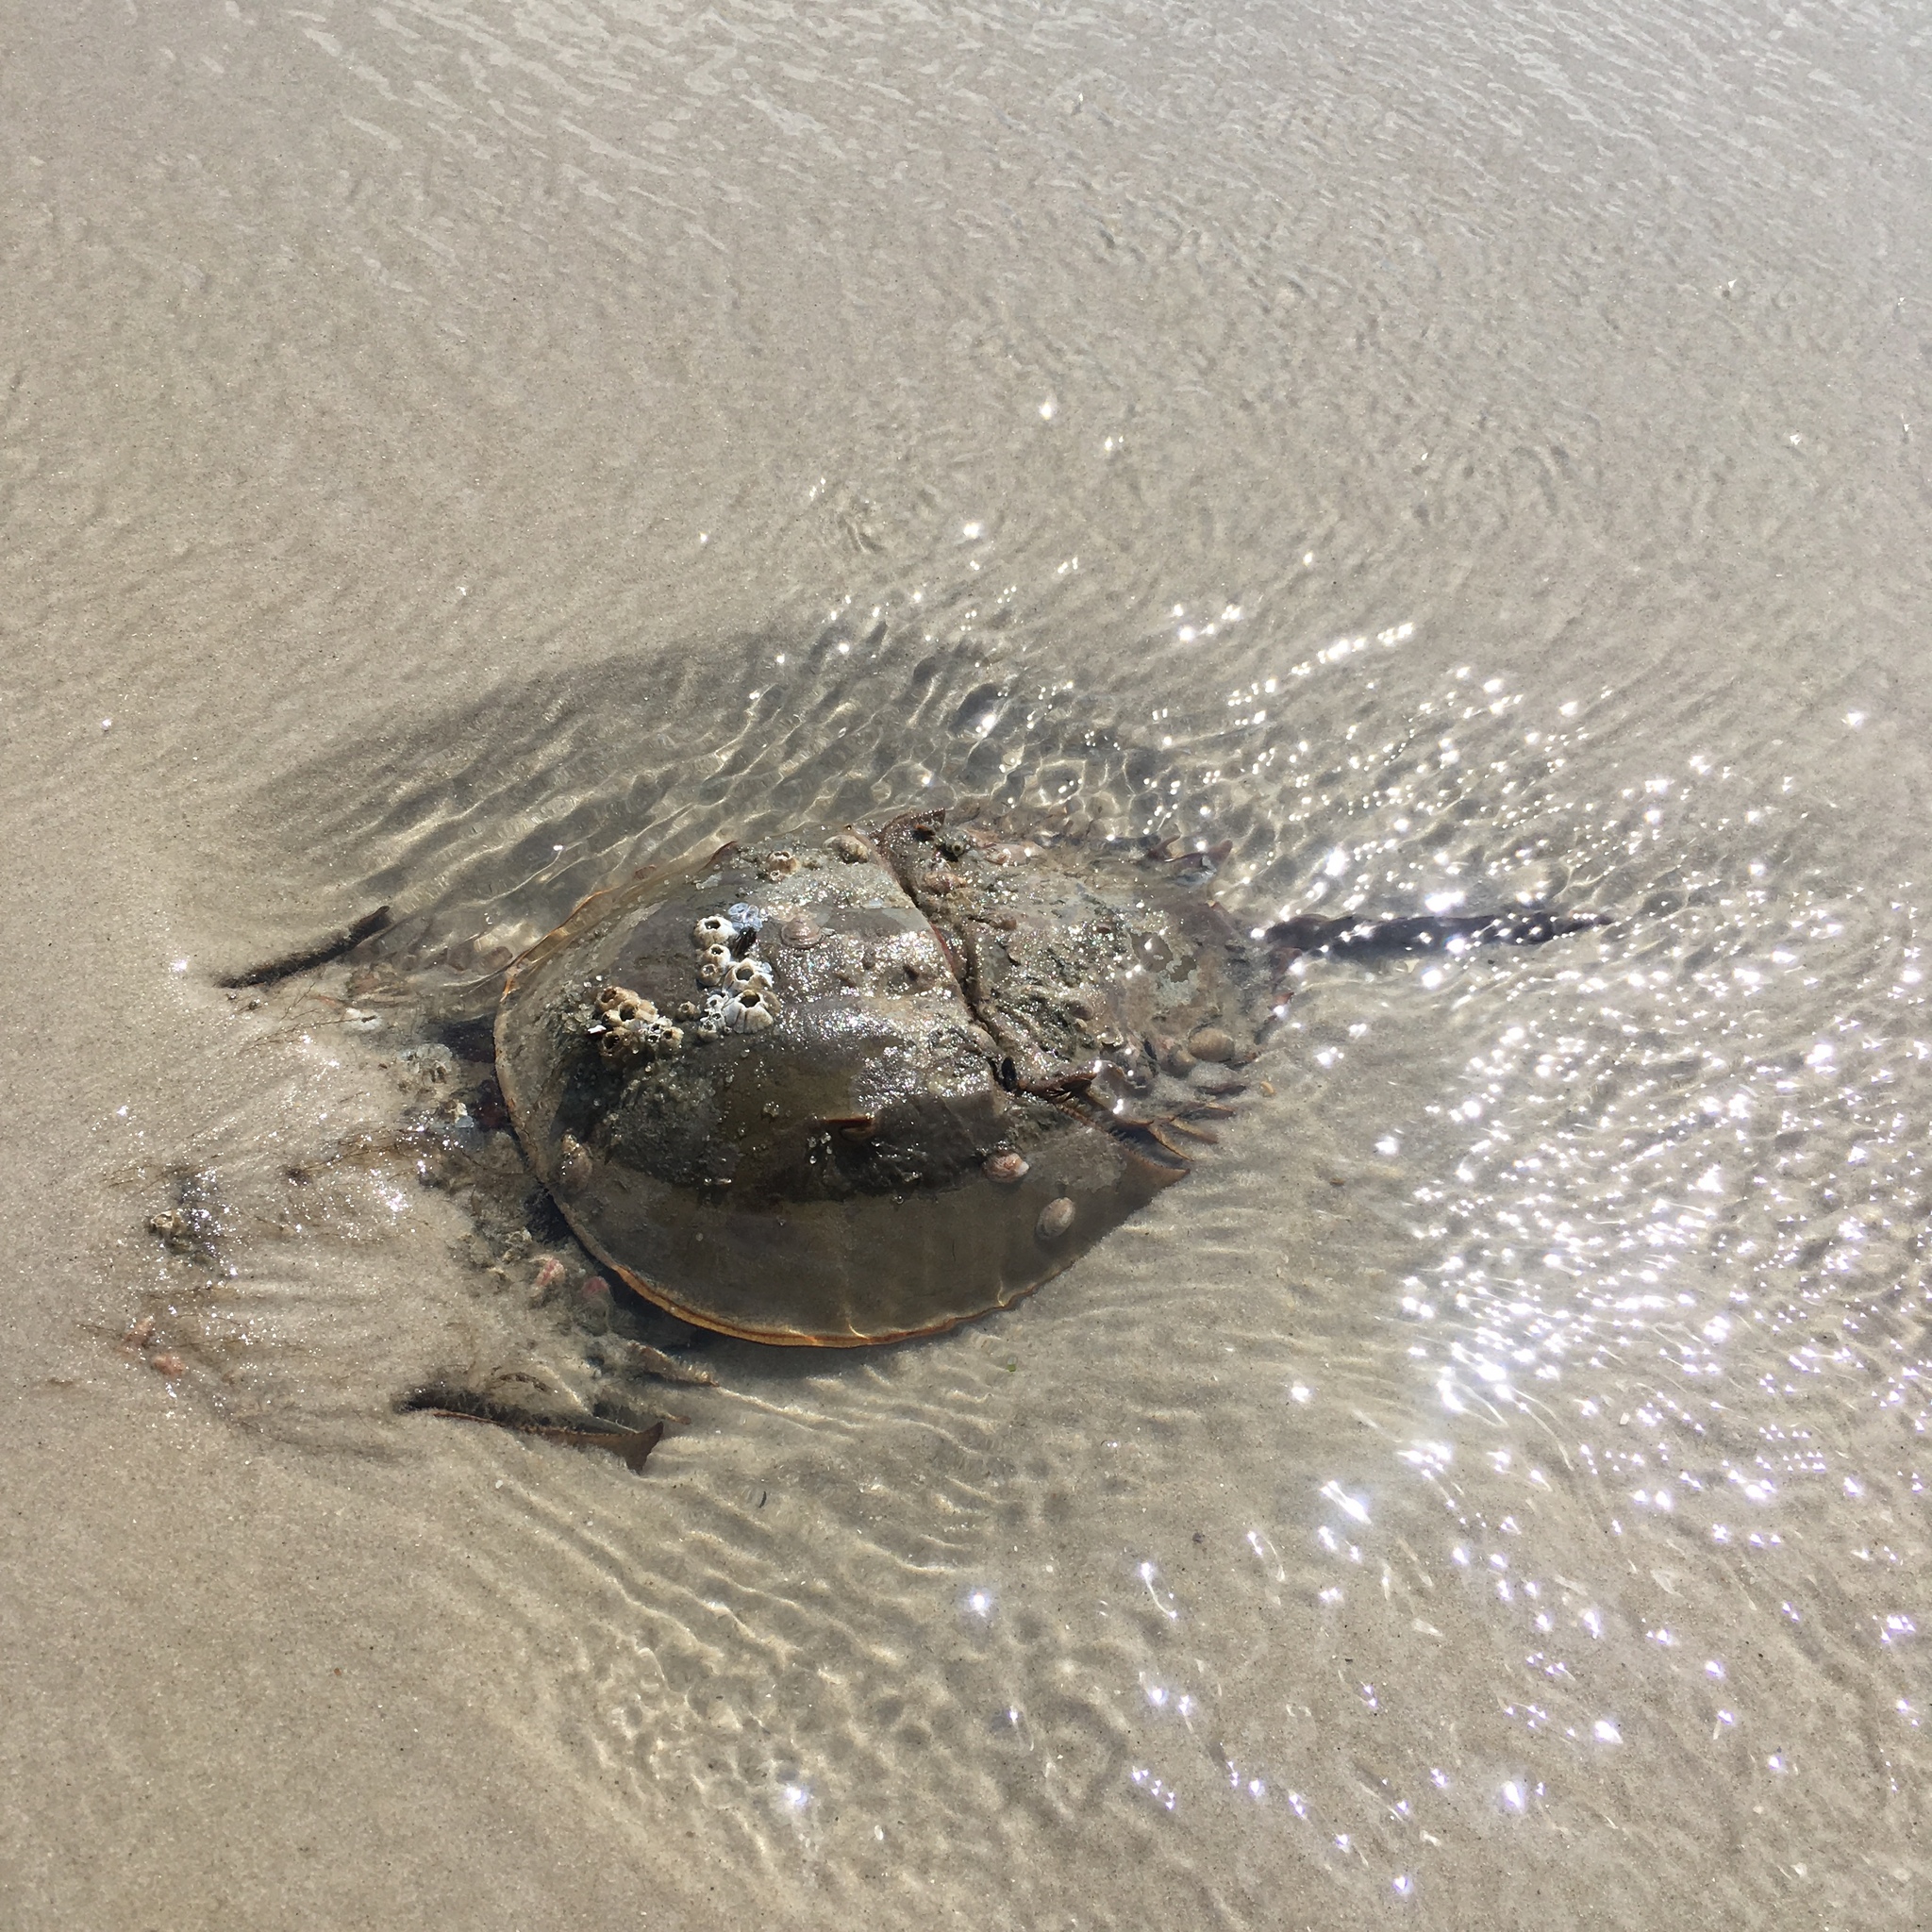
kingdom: Animalia
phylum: Arthropoda
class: Merostomata
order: Xiphosurida
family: Limulidae
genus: Limulus
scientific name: Limulus polyphemus
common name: Horseshoe crab
